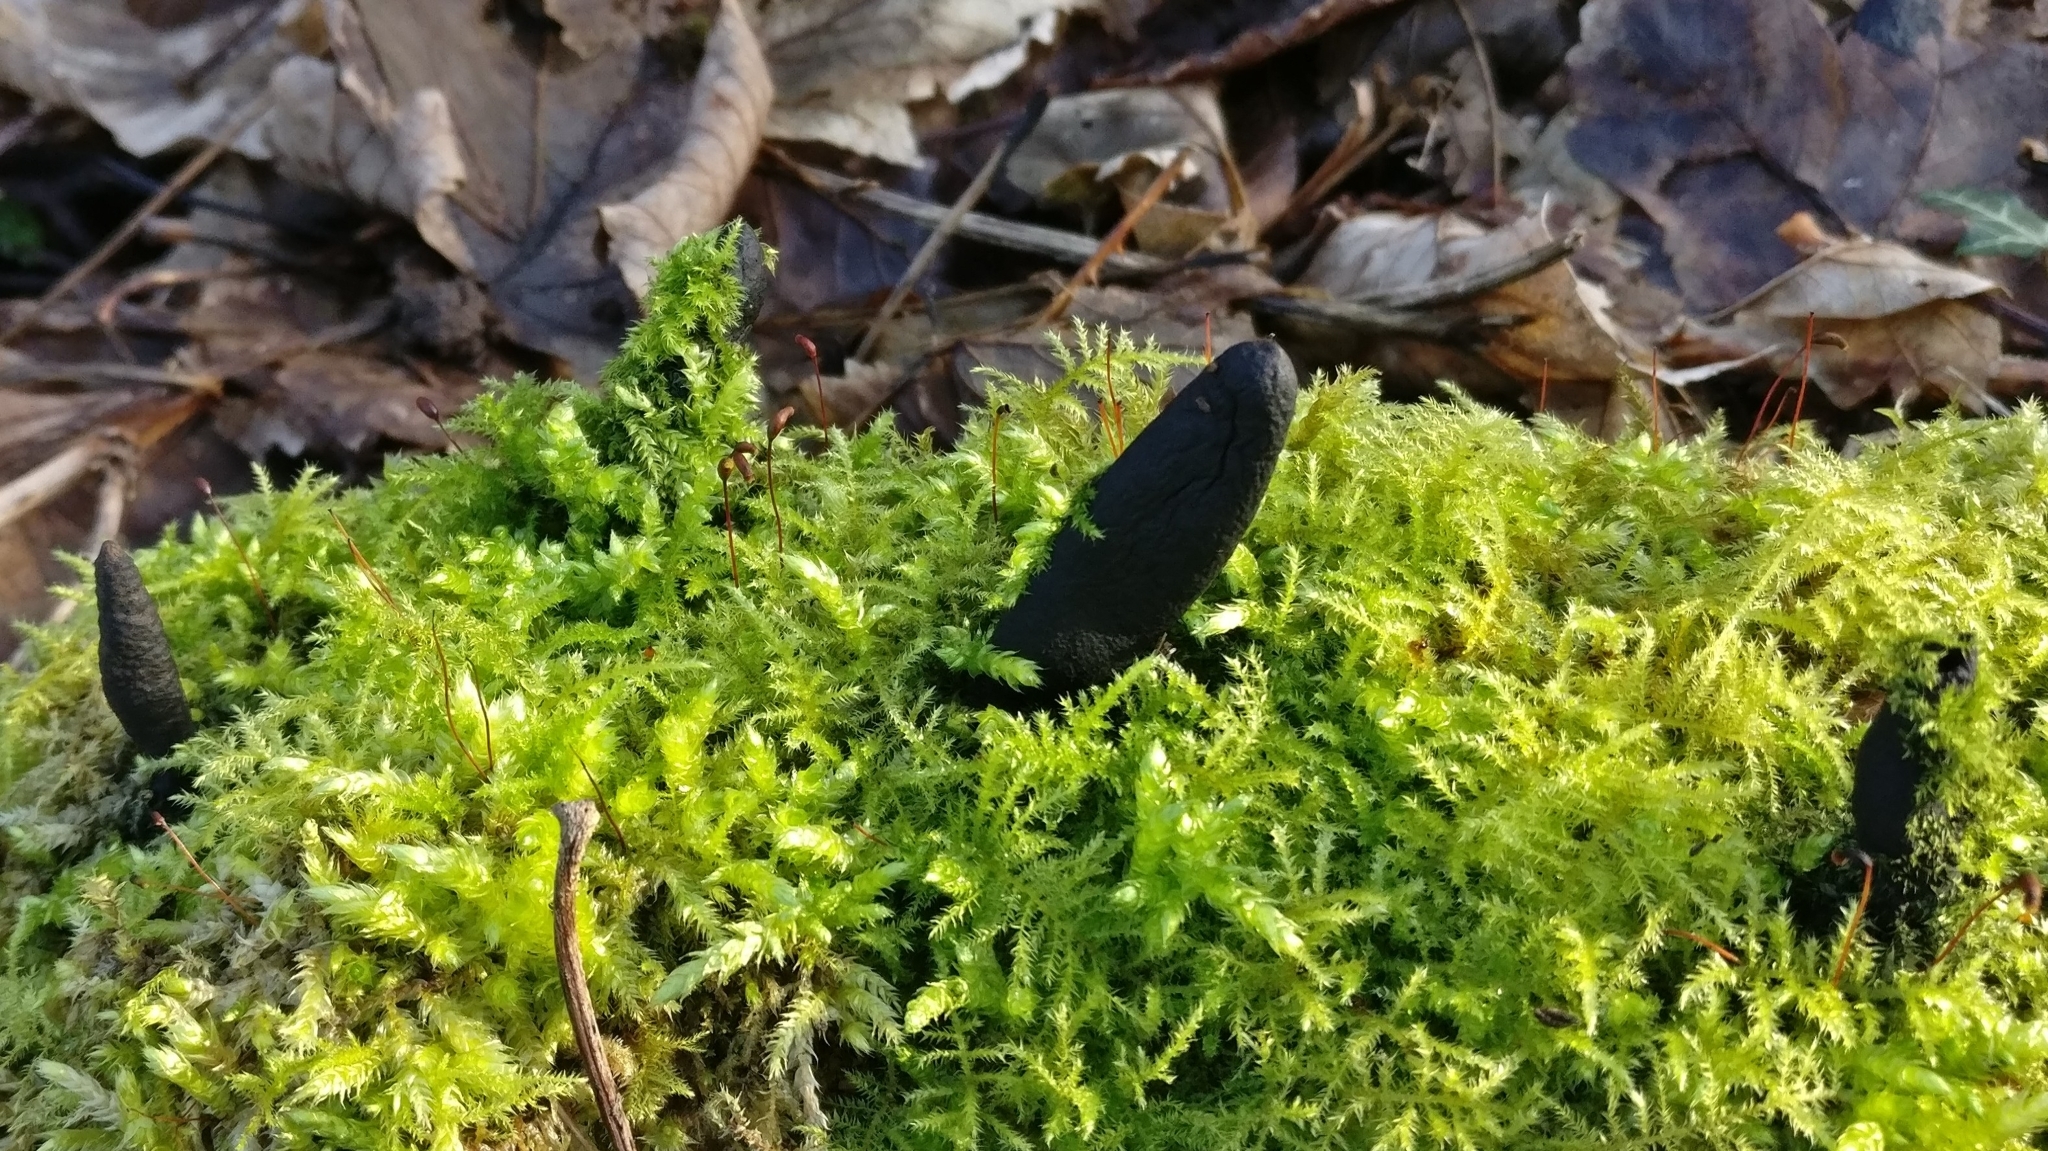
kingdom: Fungi
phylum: Ascomycota
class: Sordariomycetes
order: Xylariales
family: Xylariaceae
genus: Xylaria
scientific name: Xylaria
